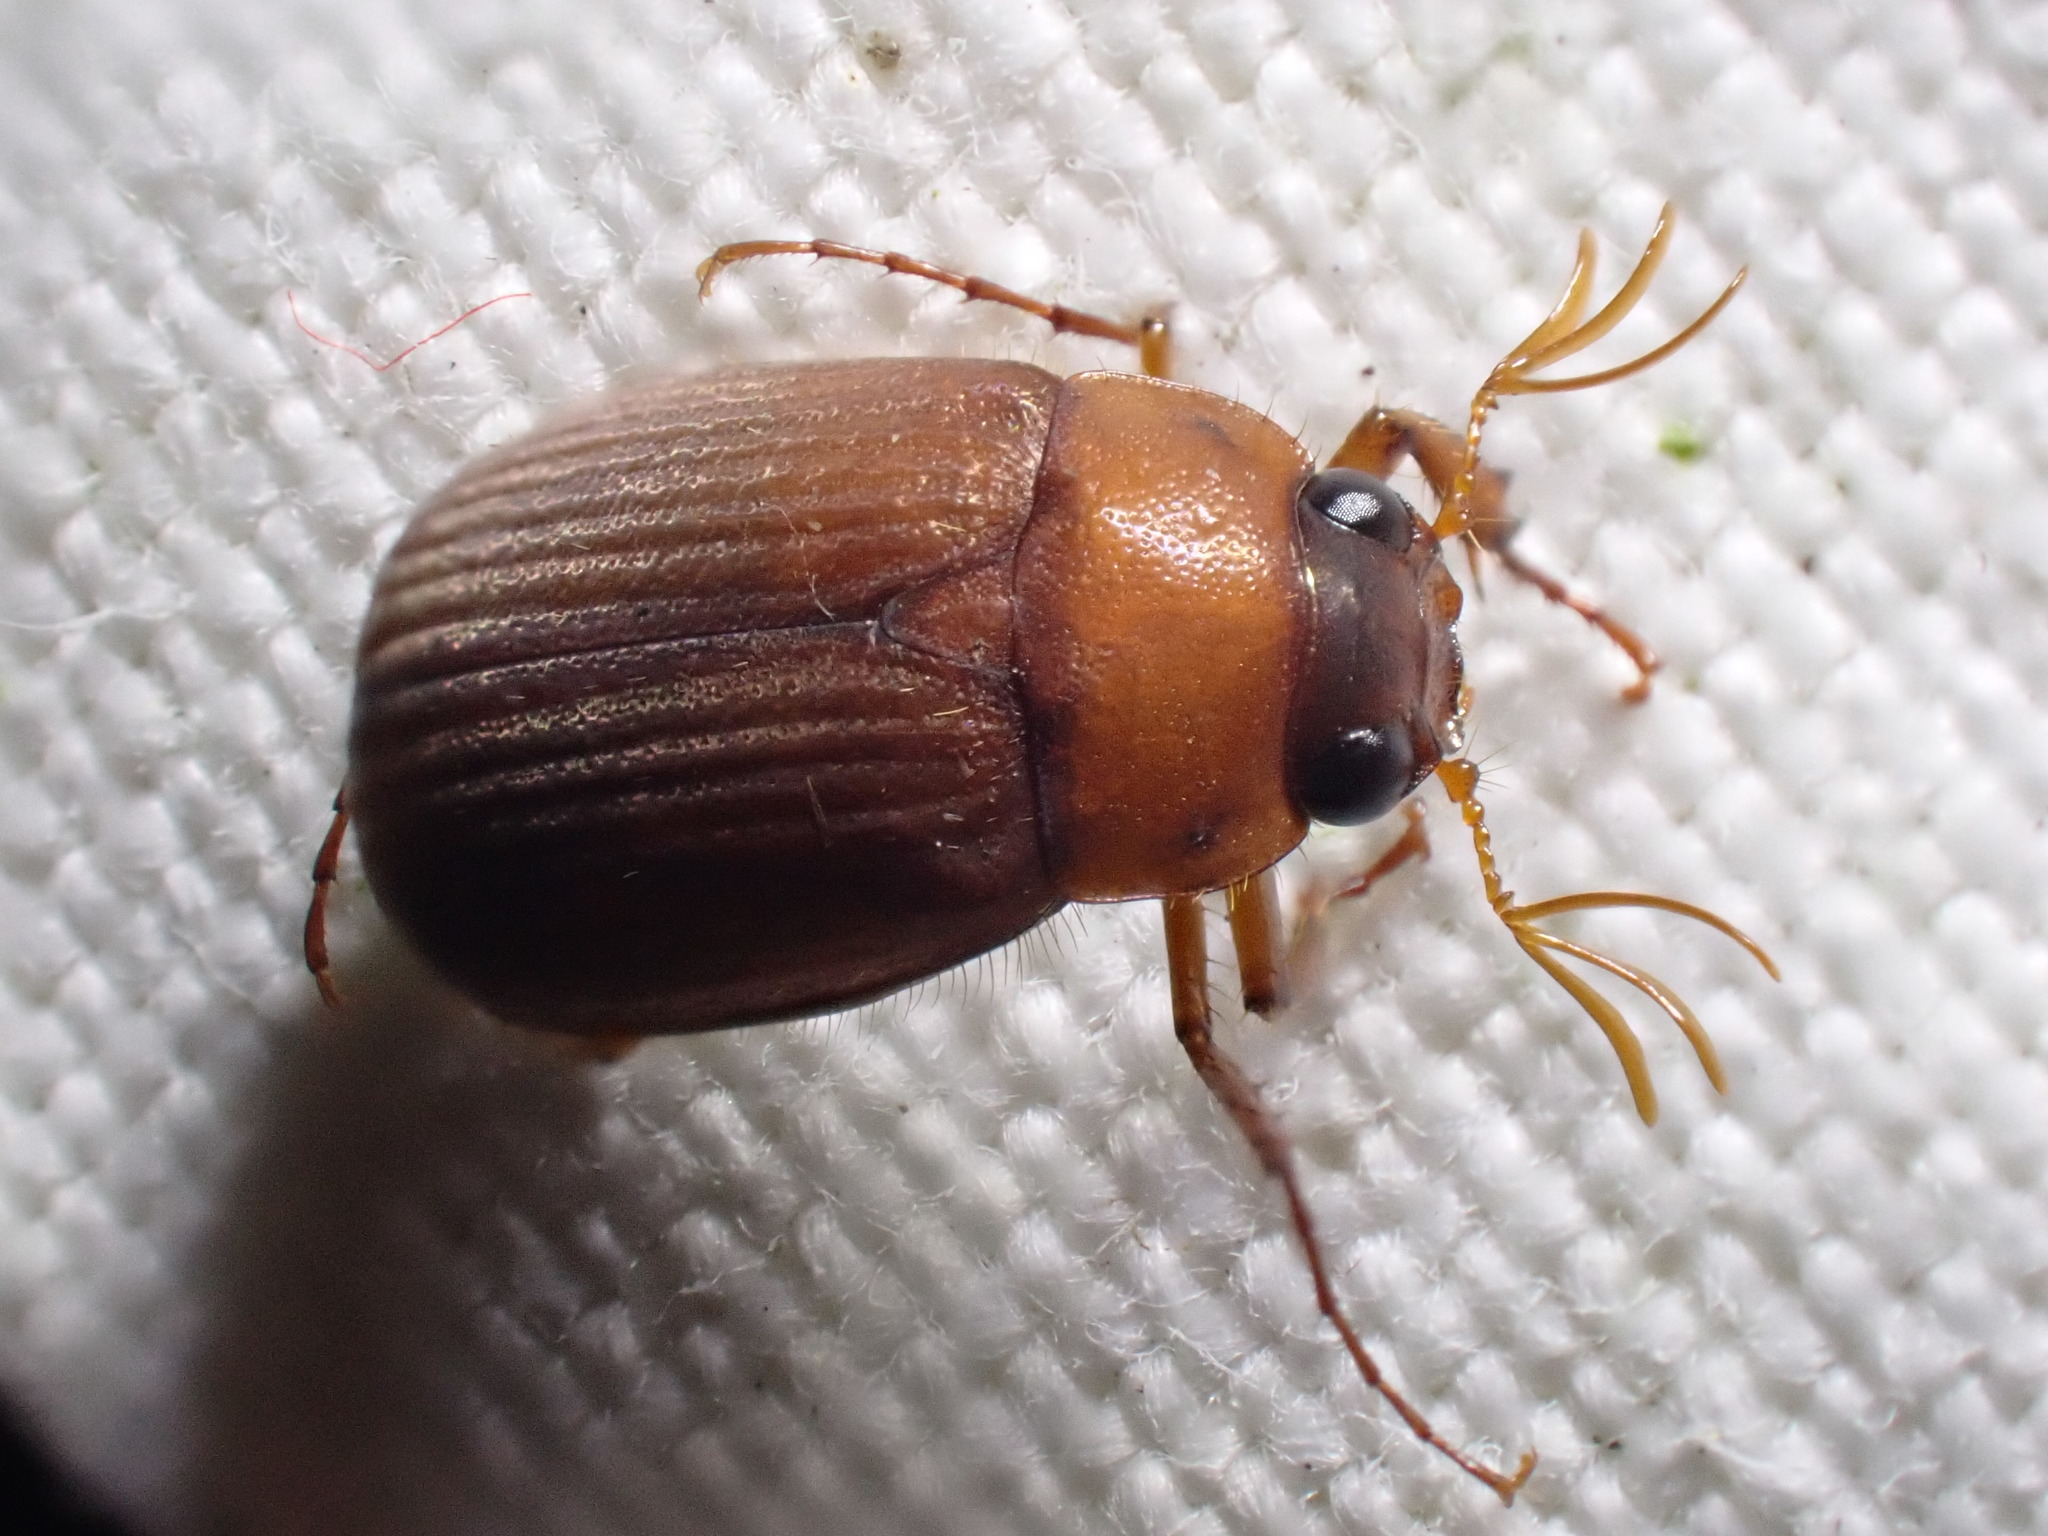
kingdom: Animalia
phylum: Arthropoda
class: Insecta
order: Coleoptera
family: Scarabaeidae
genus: Serica
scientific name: Serica brunnea
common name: Brown chafer
